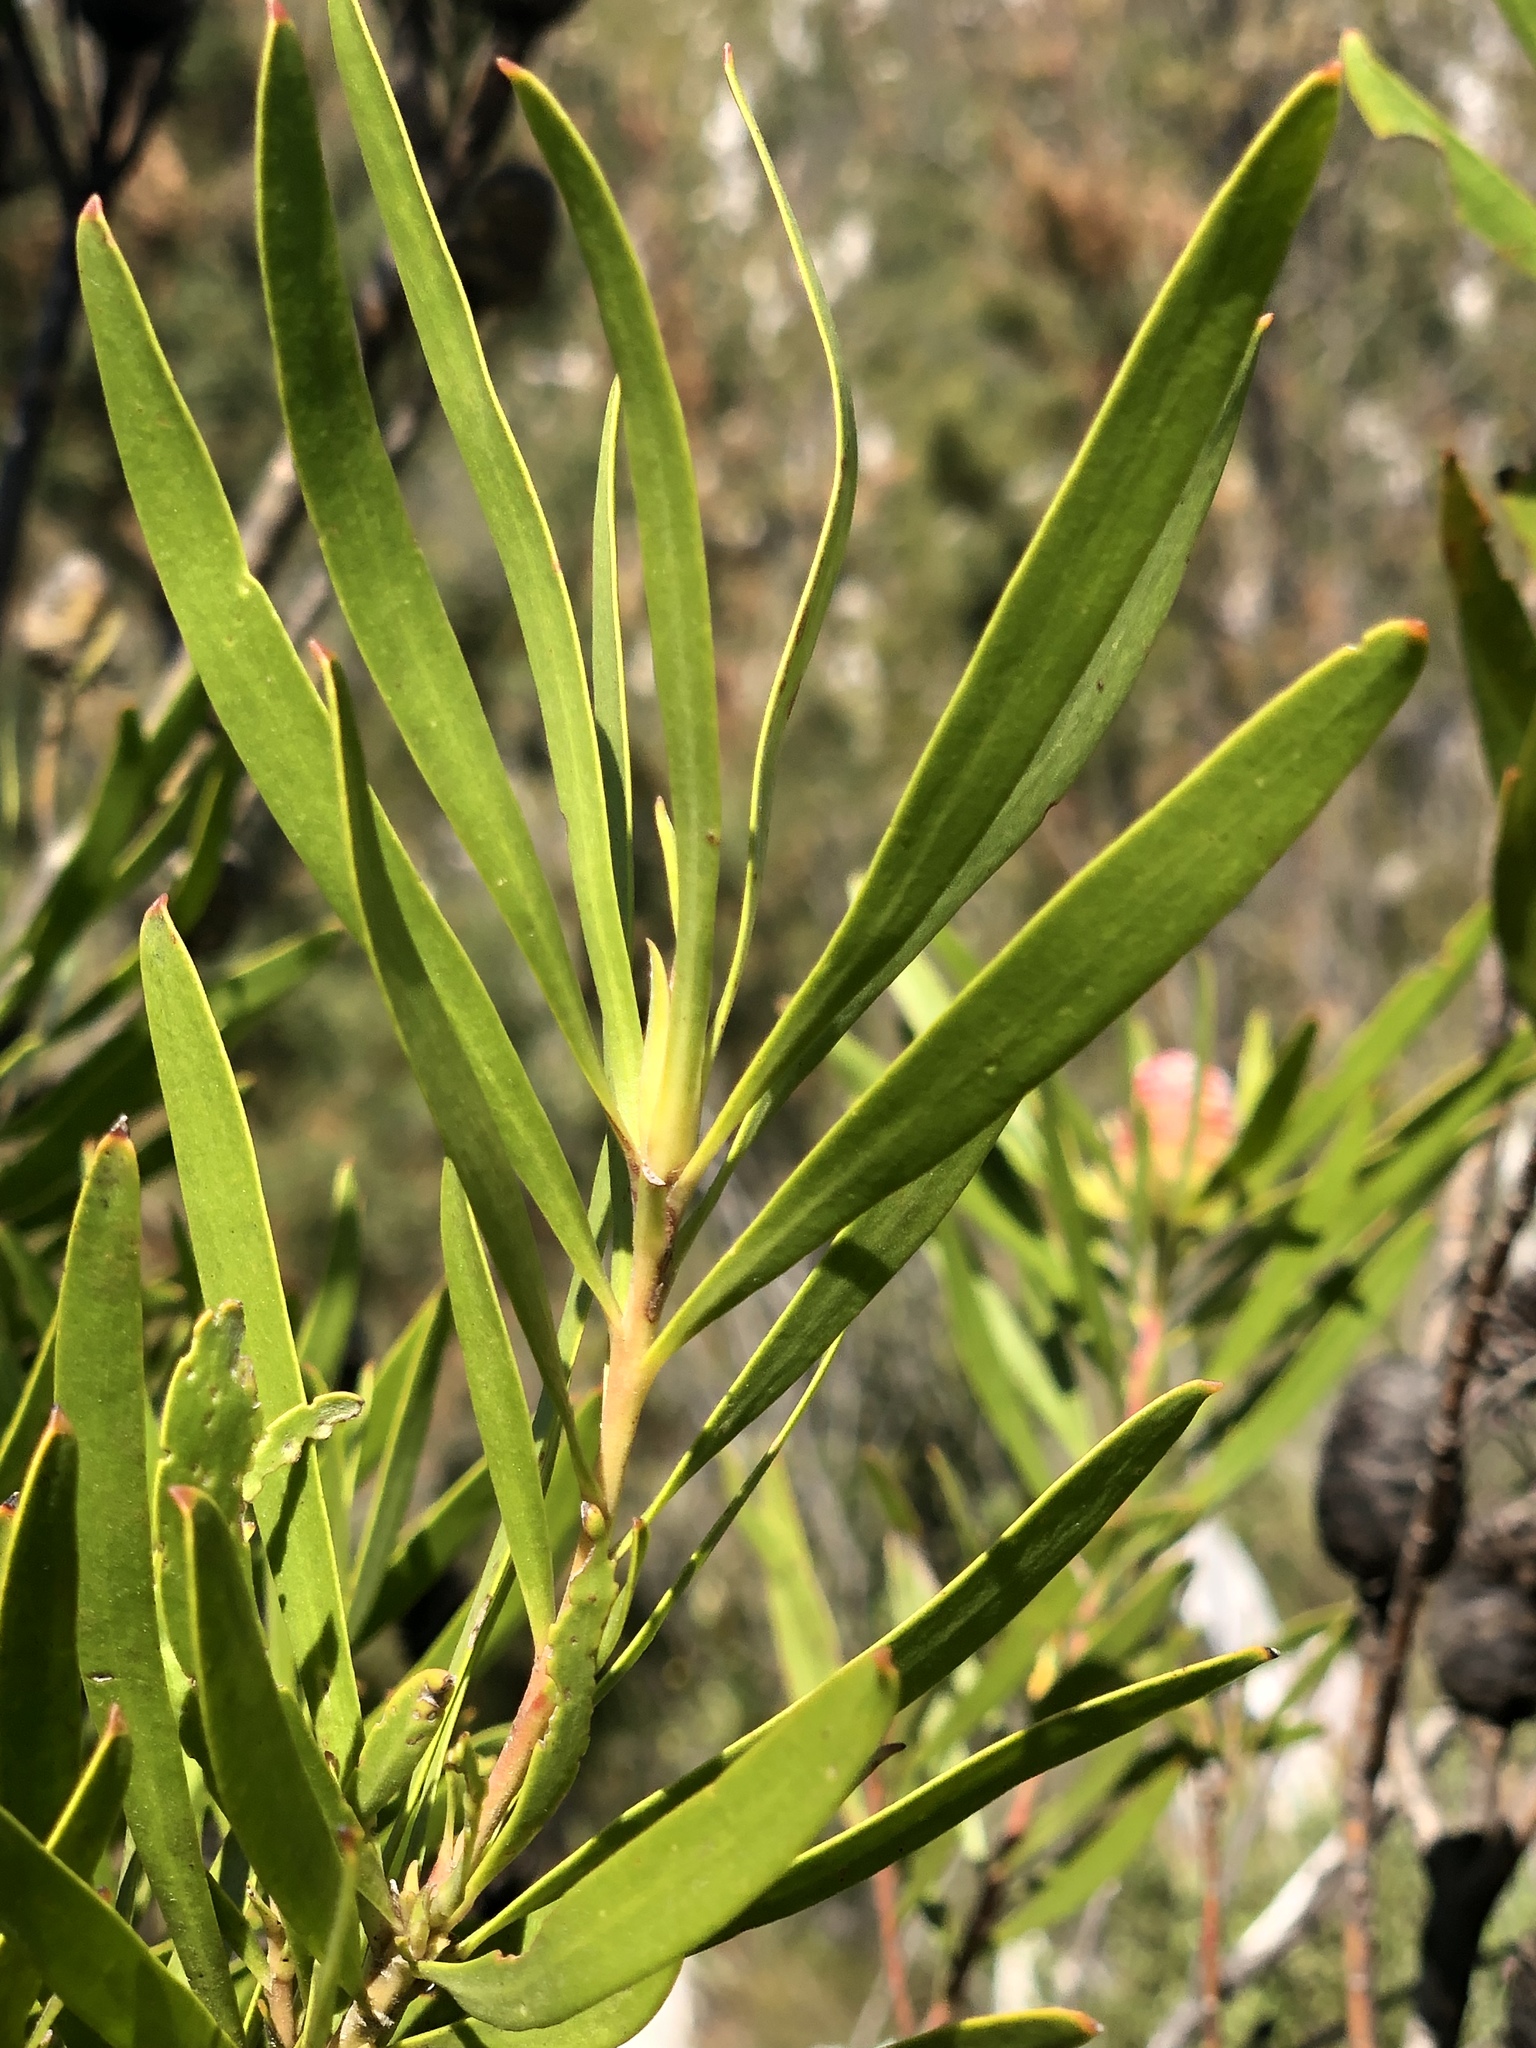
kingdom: Plantae
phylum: Tracheophyta
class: Magnoliopsida
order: Proteales
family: Proteaceae
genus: Leucadendron
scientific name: Leucadendron eucalyptifolium
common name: Gum-leaved conebush
